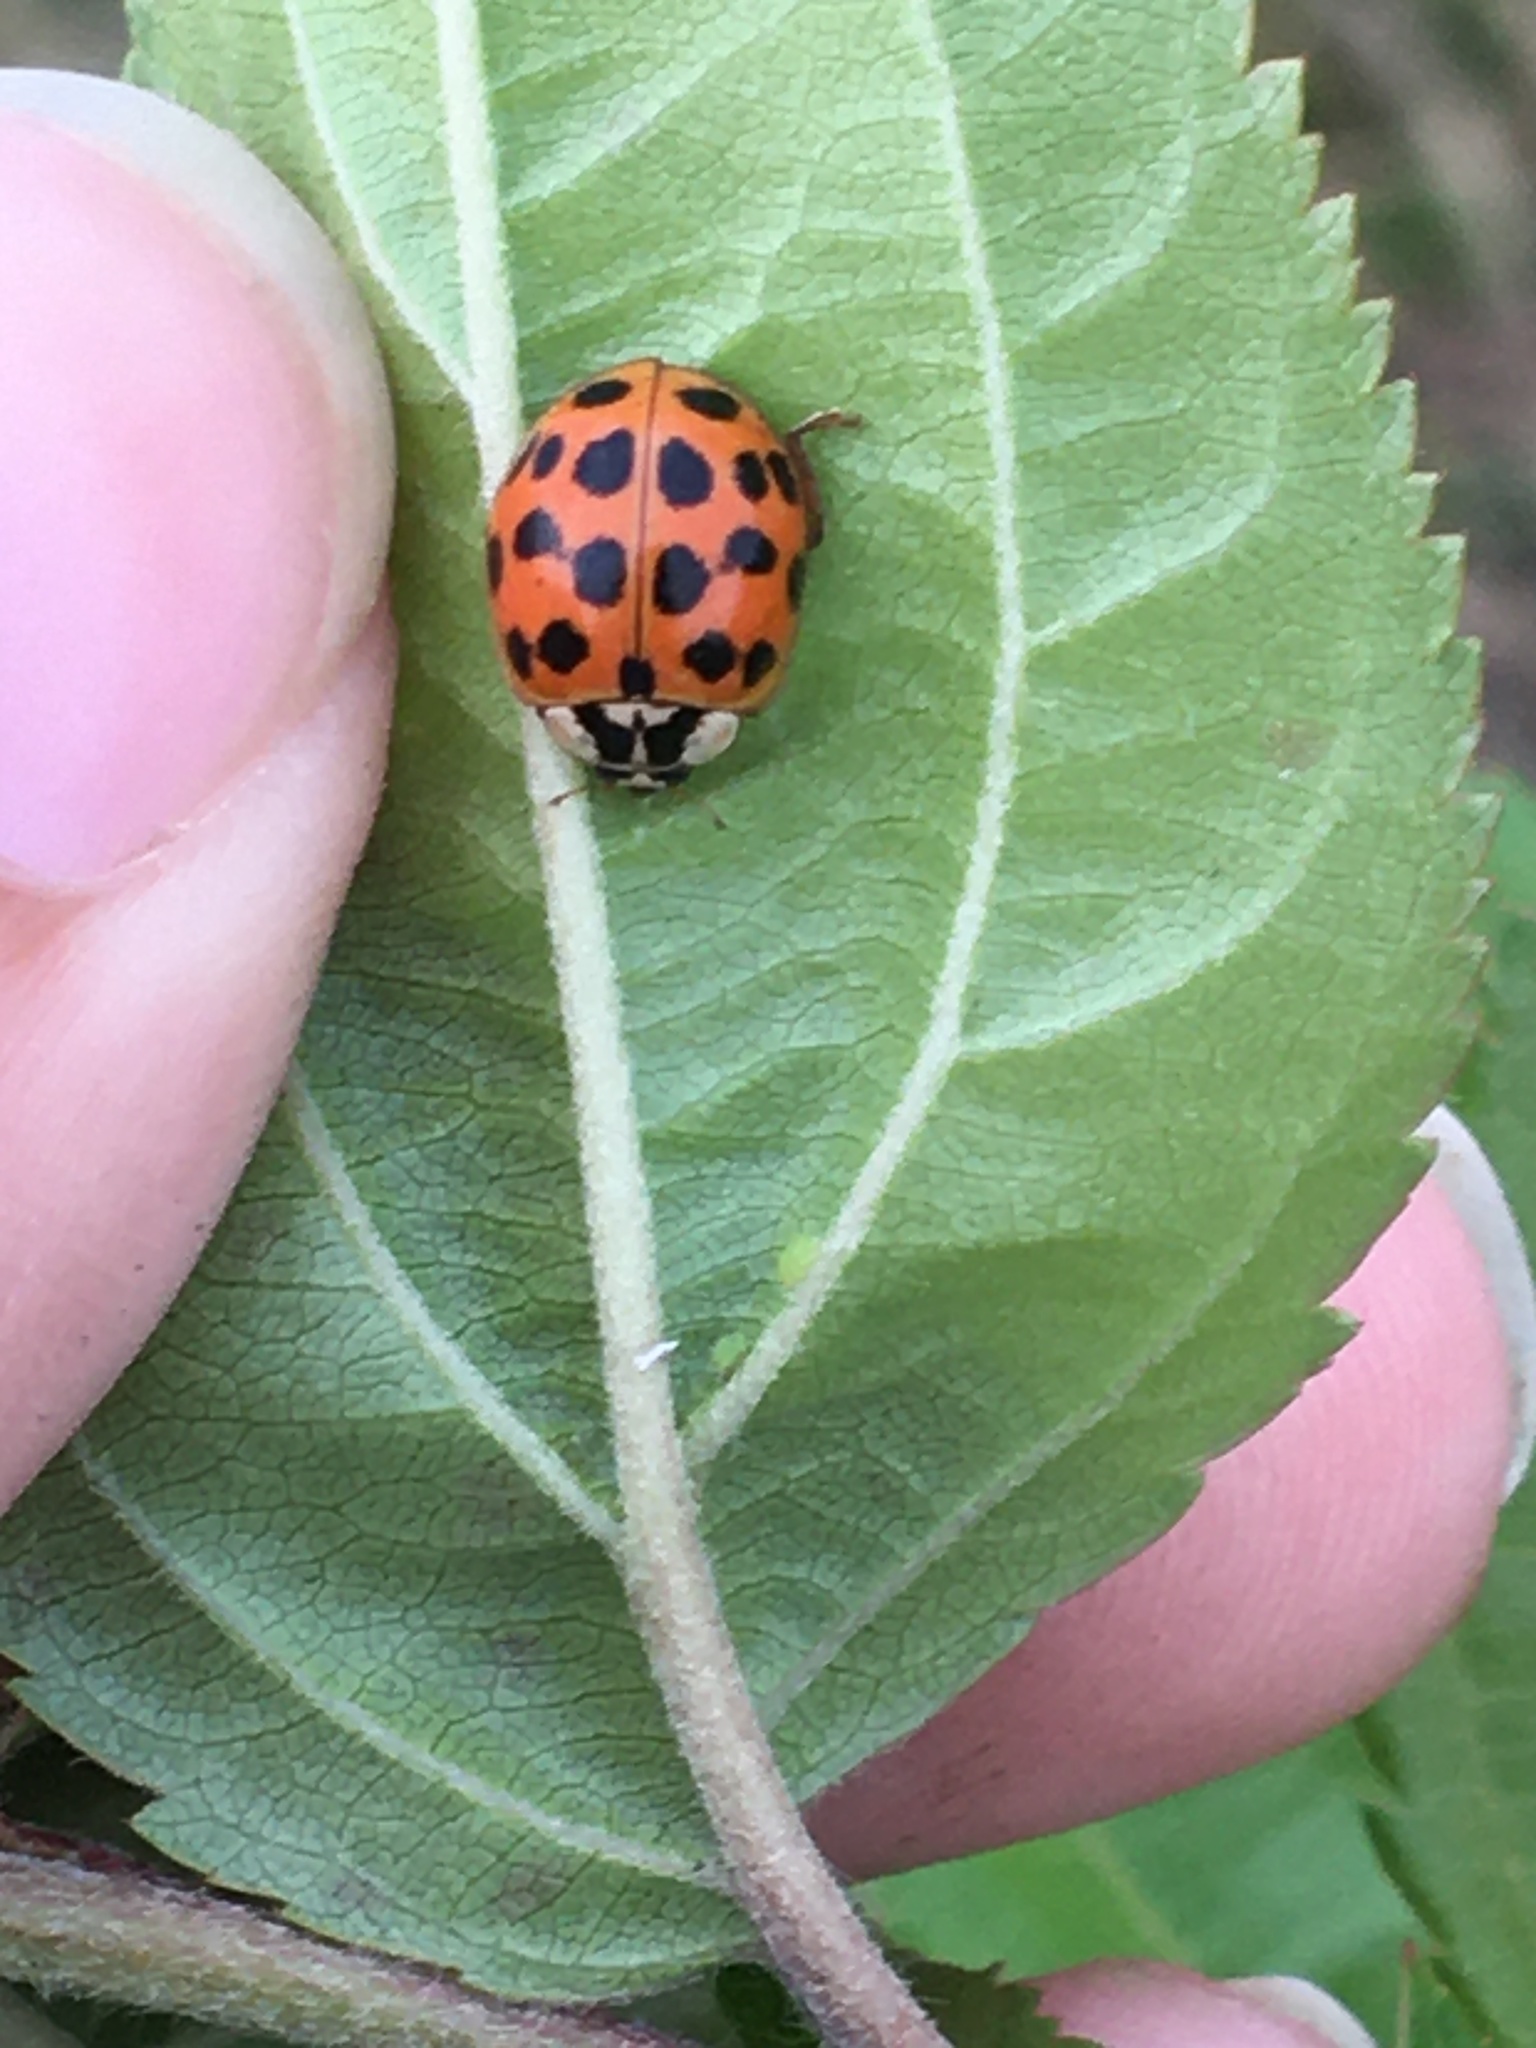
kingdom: Animalia
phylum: Arthropoda
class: Insecta
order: Coleoptera
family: Coccinellidae
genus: Harmonia
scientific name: Harmonia axyridis
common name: Harlequin ladybird
